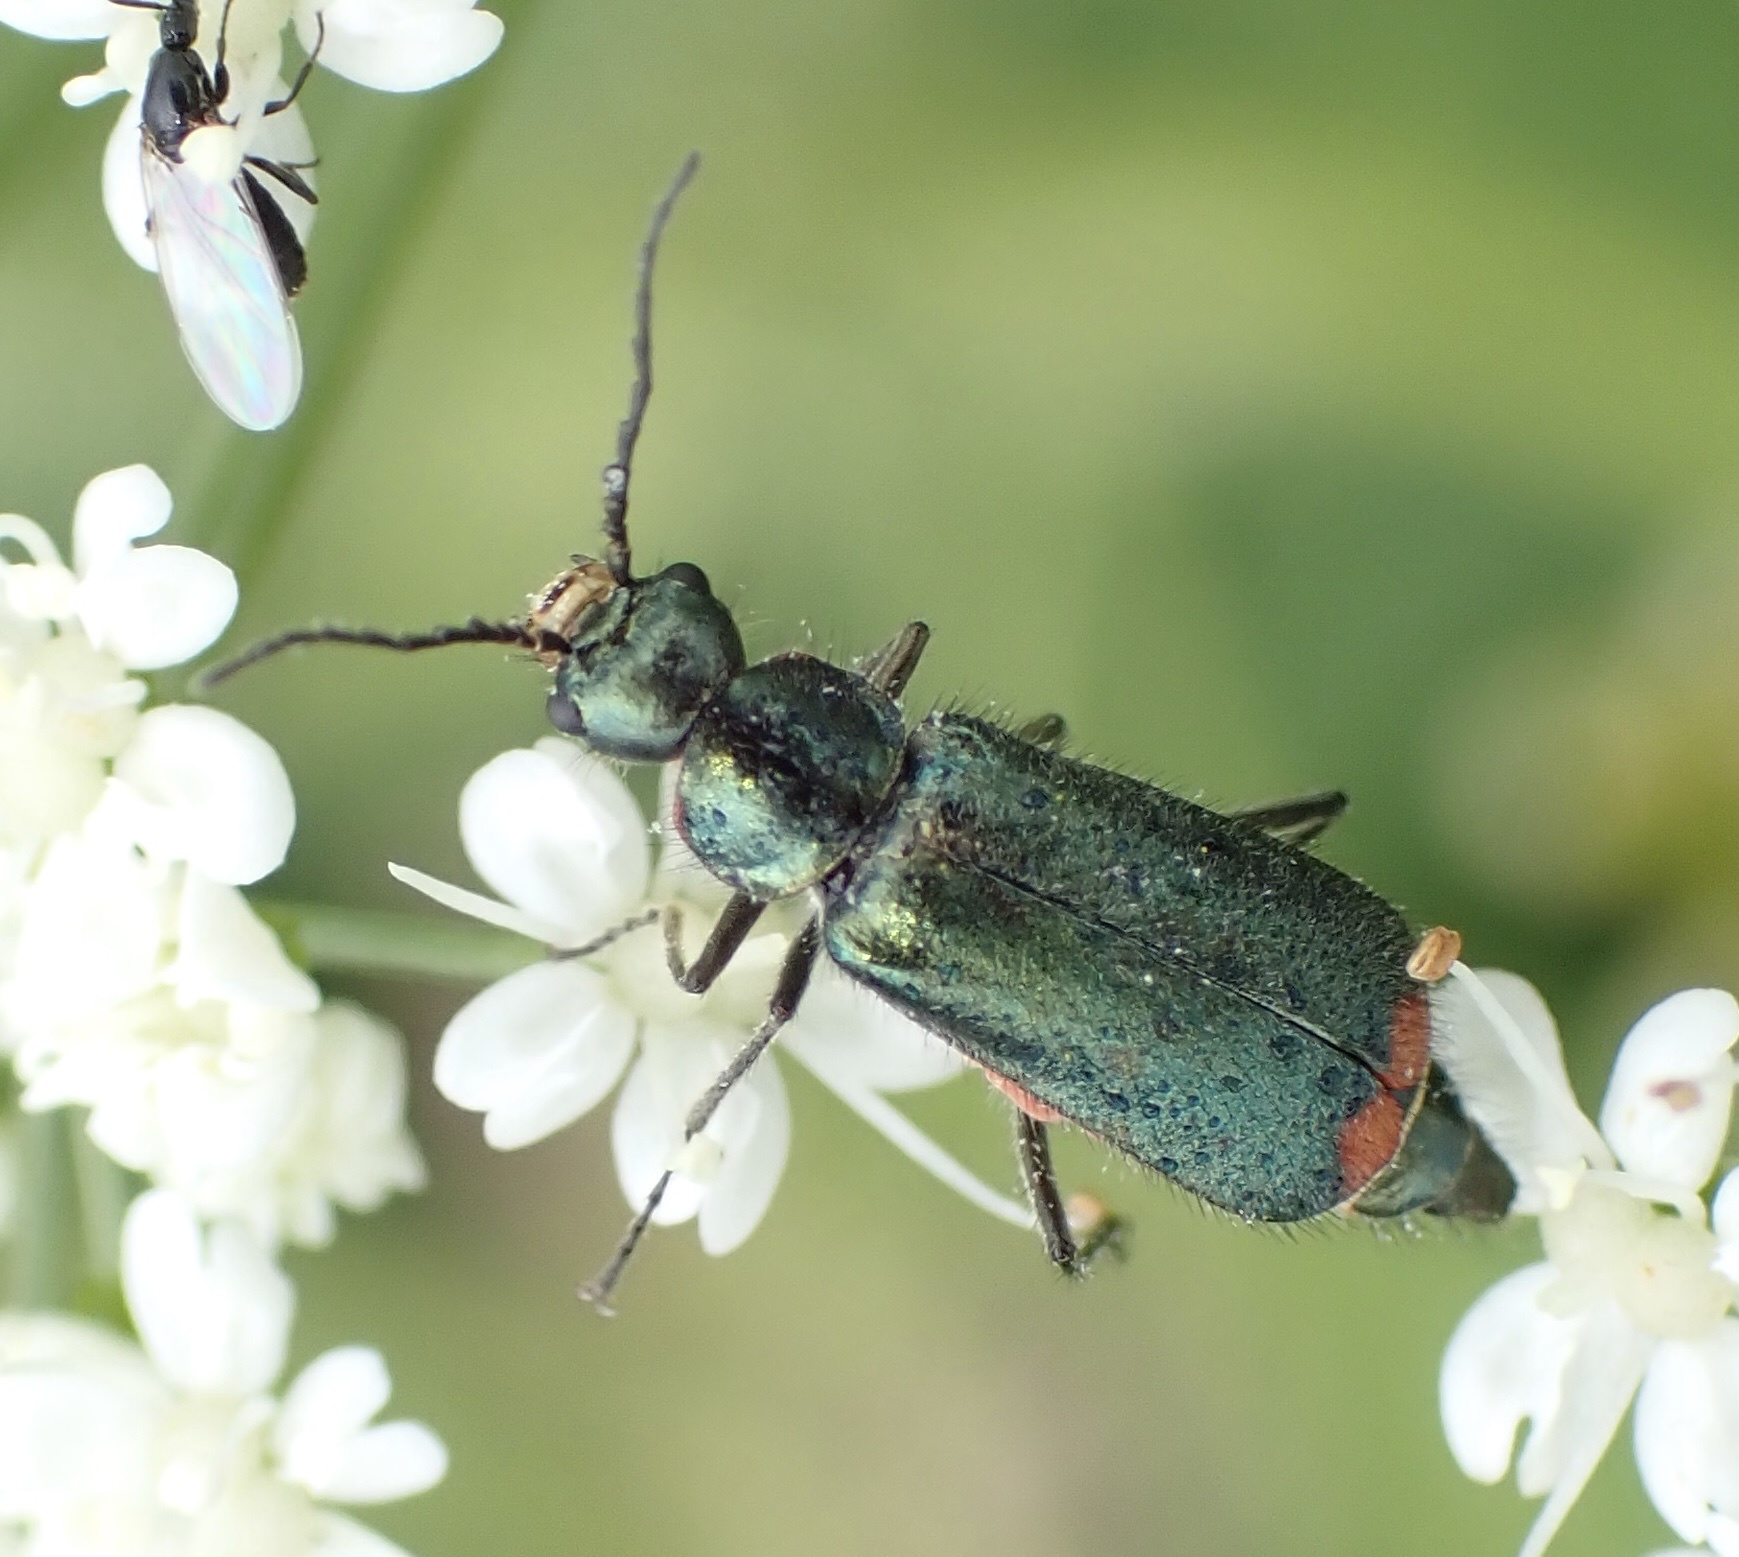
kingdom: Animalia
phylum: Arthropoda
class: Insecta
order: Coleoptera
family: Melyridae
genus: Malachius
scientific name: Malachius bipustulatus
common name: Malachite beetle
